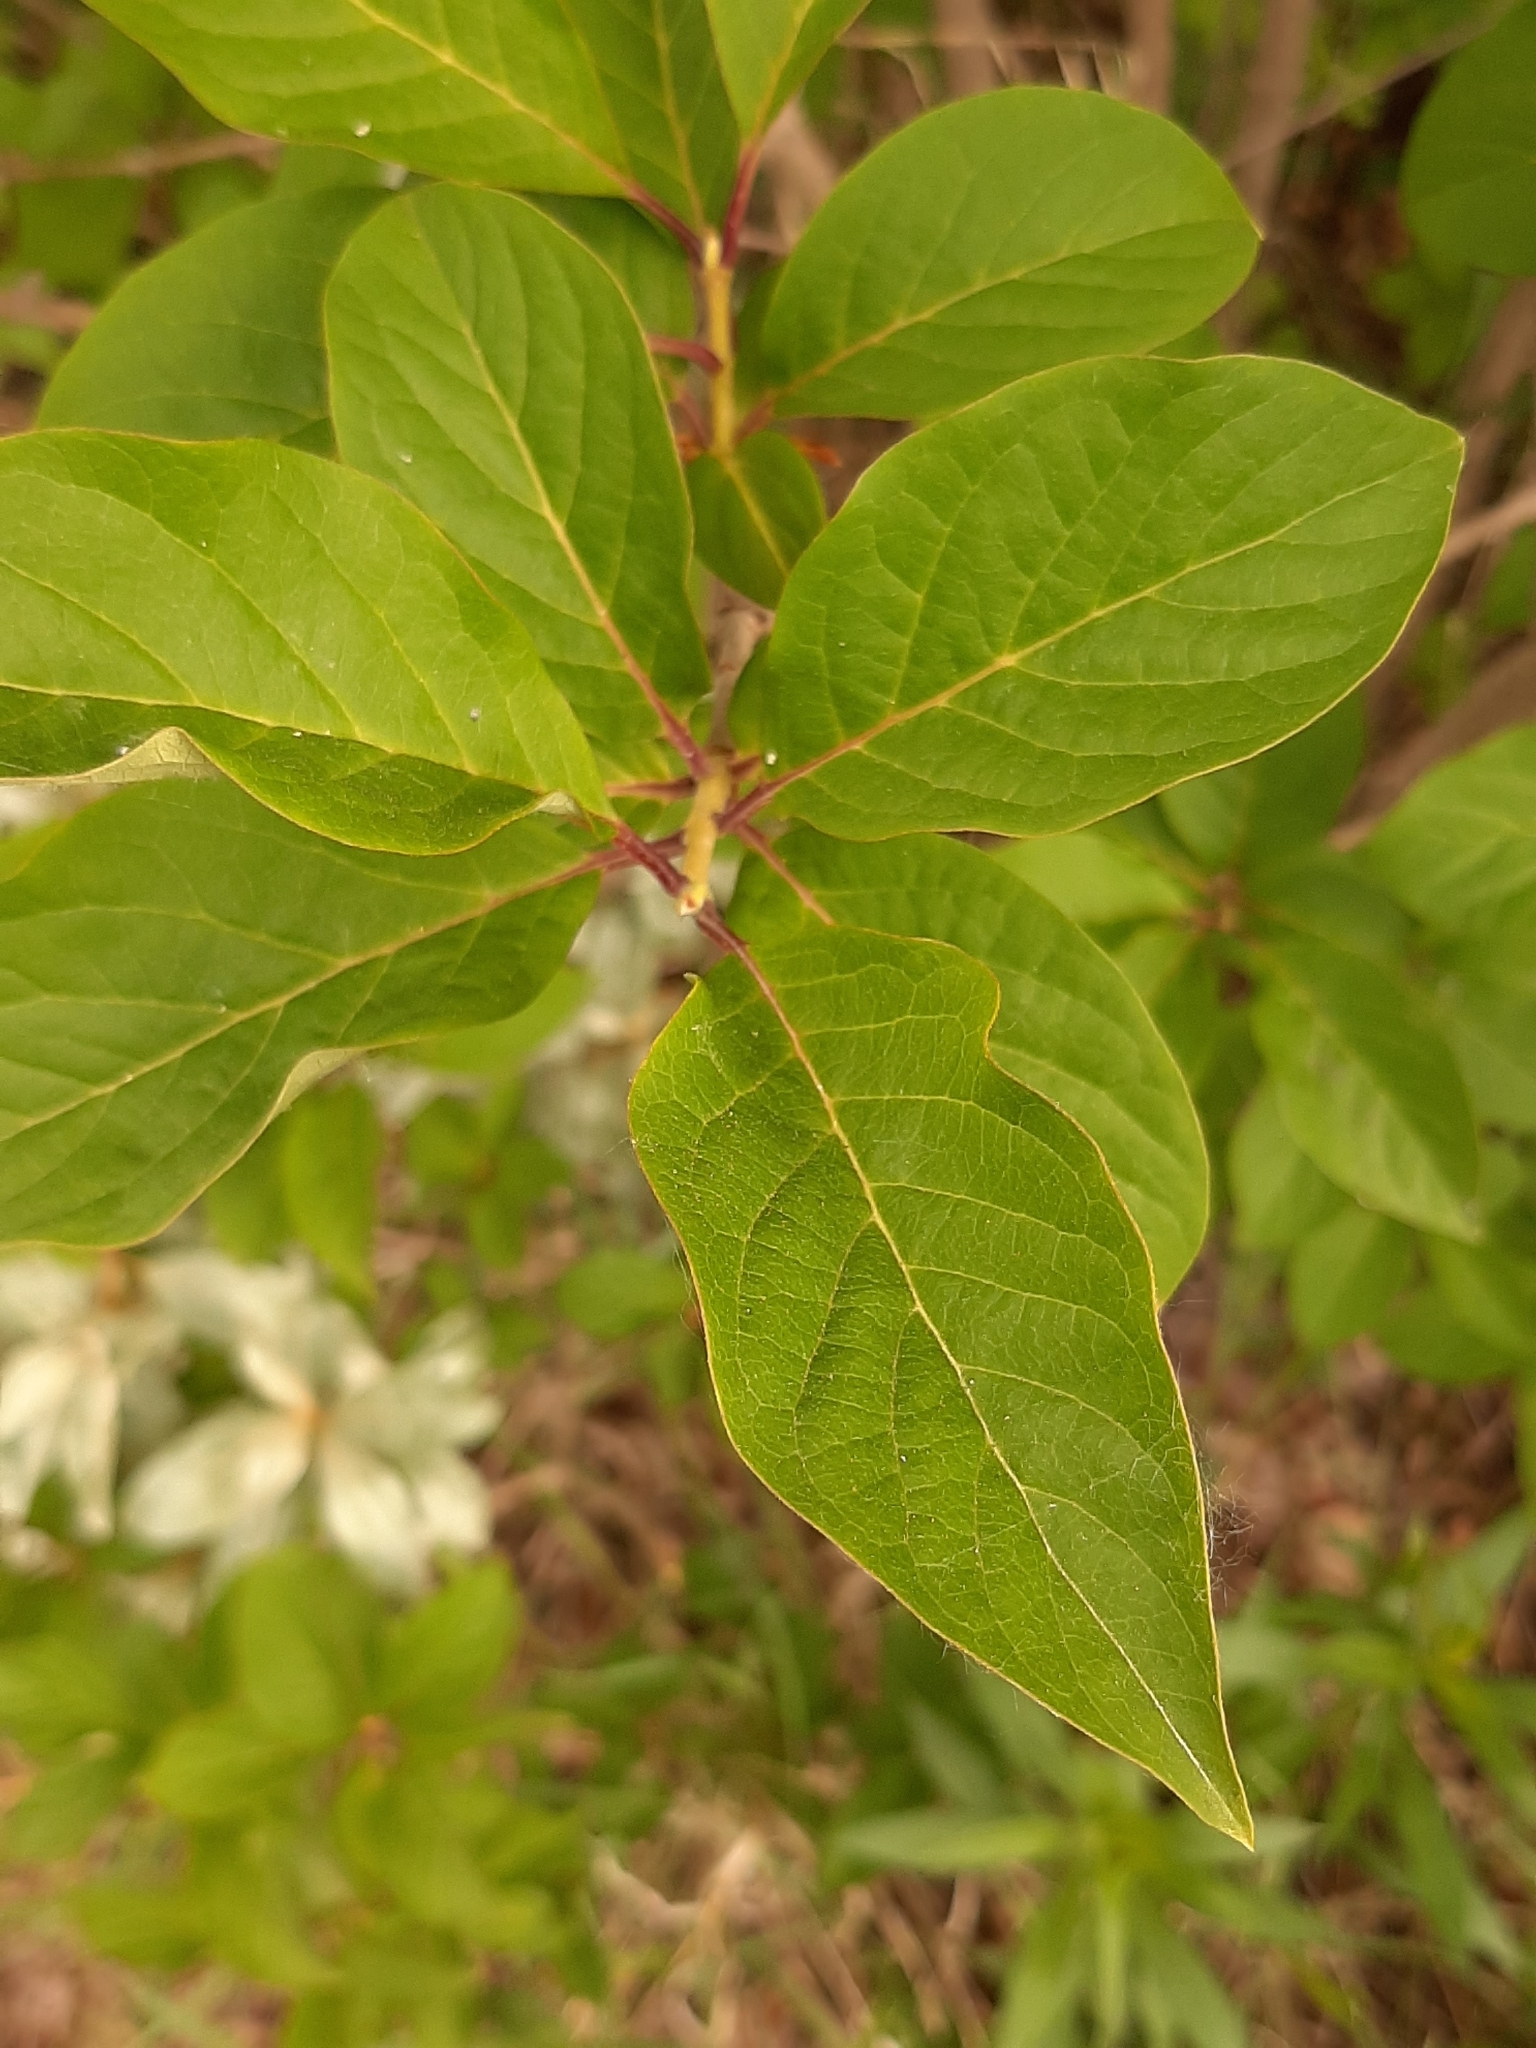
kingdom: Plantae
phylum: Tracheophyta
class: Magnoliopsida
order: Lamiales
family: Oleaceae
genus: Syringa
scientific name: Syringa vulgaris
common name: Common lilac
